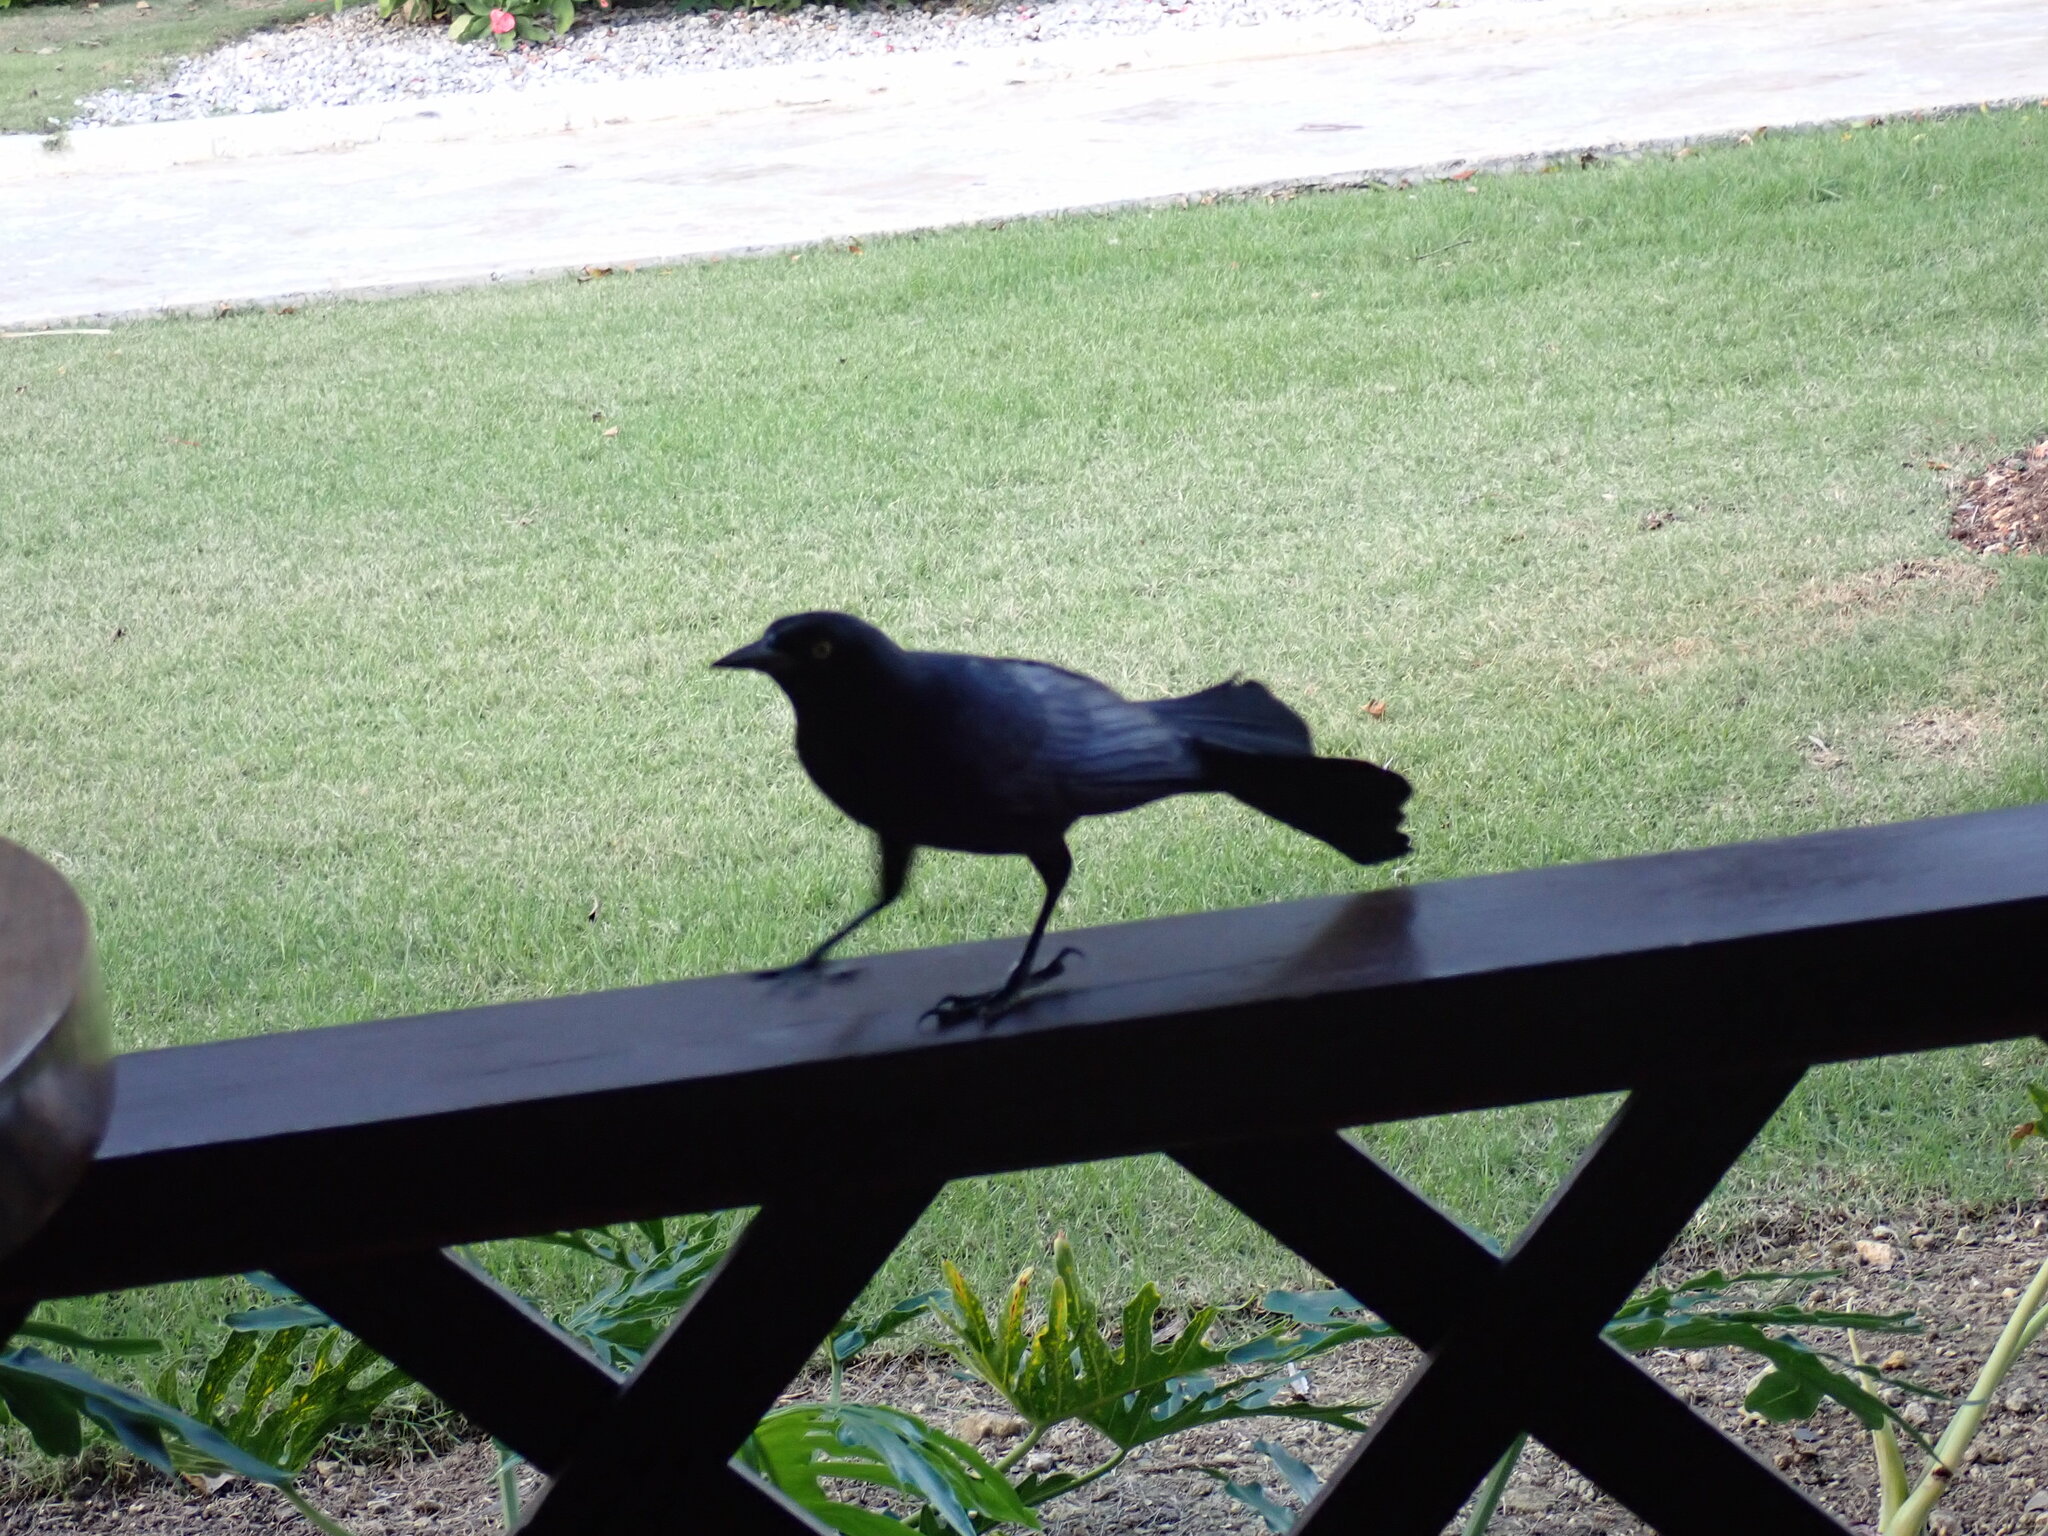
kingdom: Animalia
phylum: Chordata
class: Aves
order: Passeriformes
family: Icteridae
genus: Quiscalus
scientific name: Quiscalus niger
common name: Greater antillean grackle
